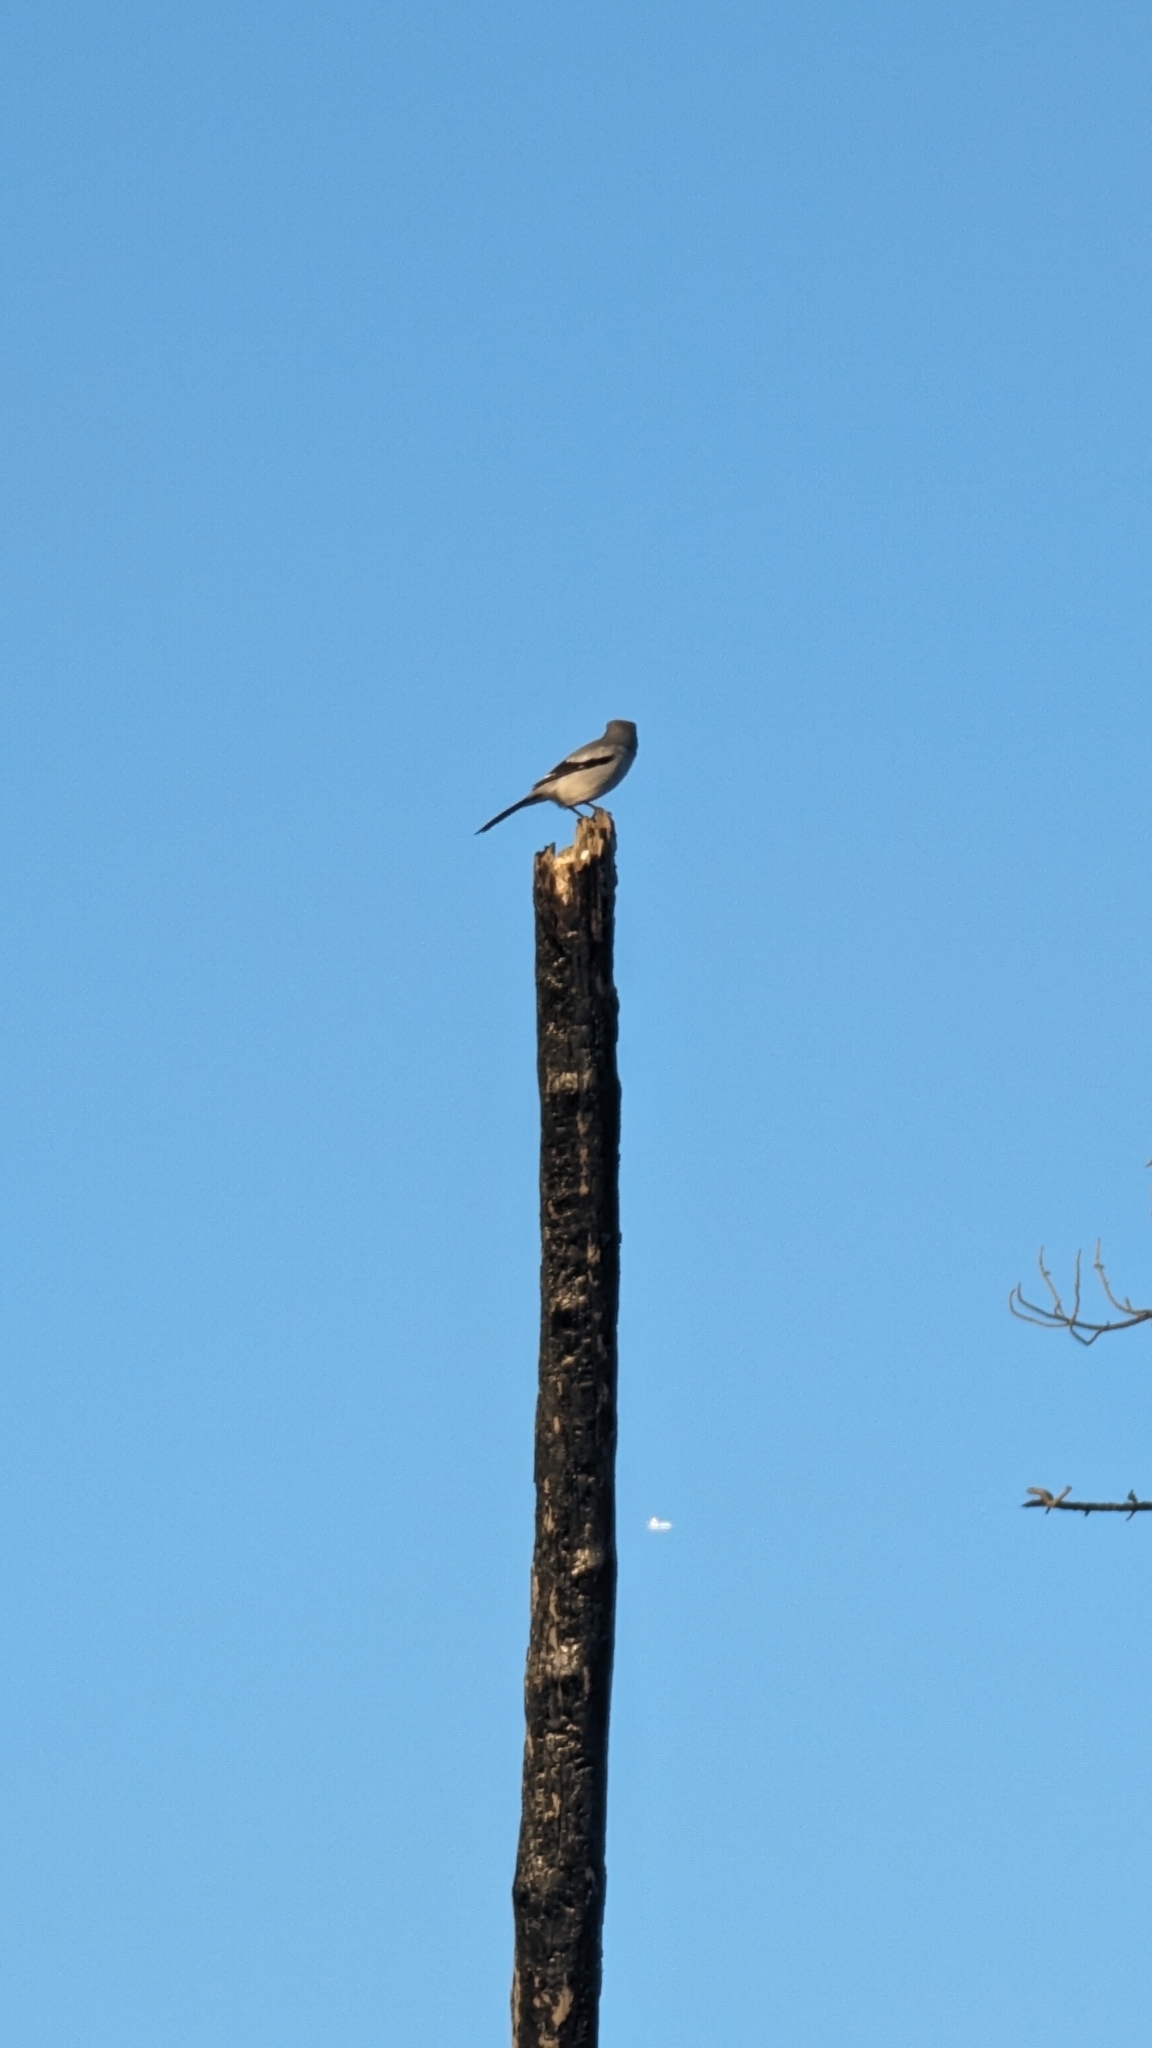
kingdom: Animalia
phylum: Chordata
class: Aves
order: Passeriformes
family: Laniidae
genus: Lanius
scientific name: Lanius ludovicianus
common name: Loggerhead shrike
